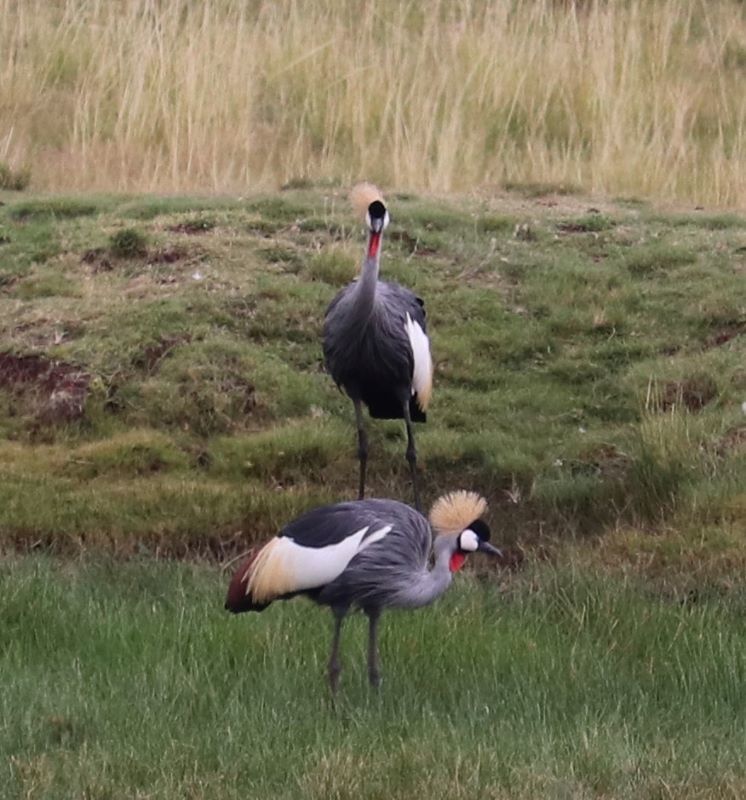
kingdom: Animalia
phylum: Chordata
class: Aves
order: Gruiformes
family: Gruidae
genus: Balearica
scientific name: Balearica regulorum
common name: Grey crowned crane
